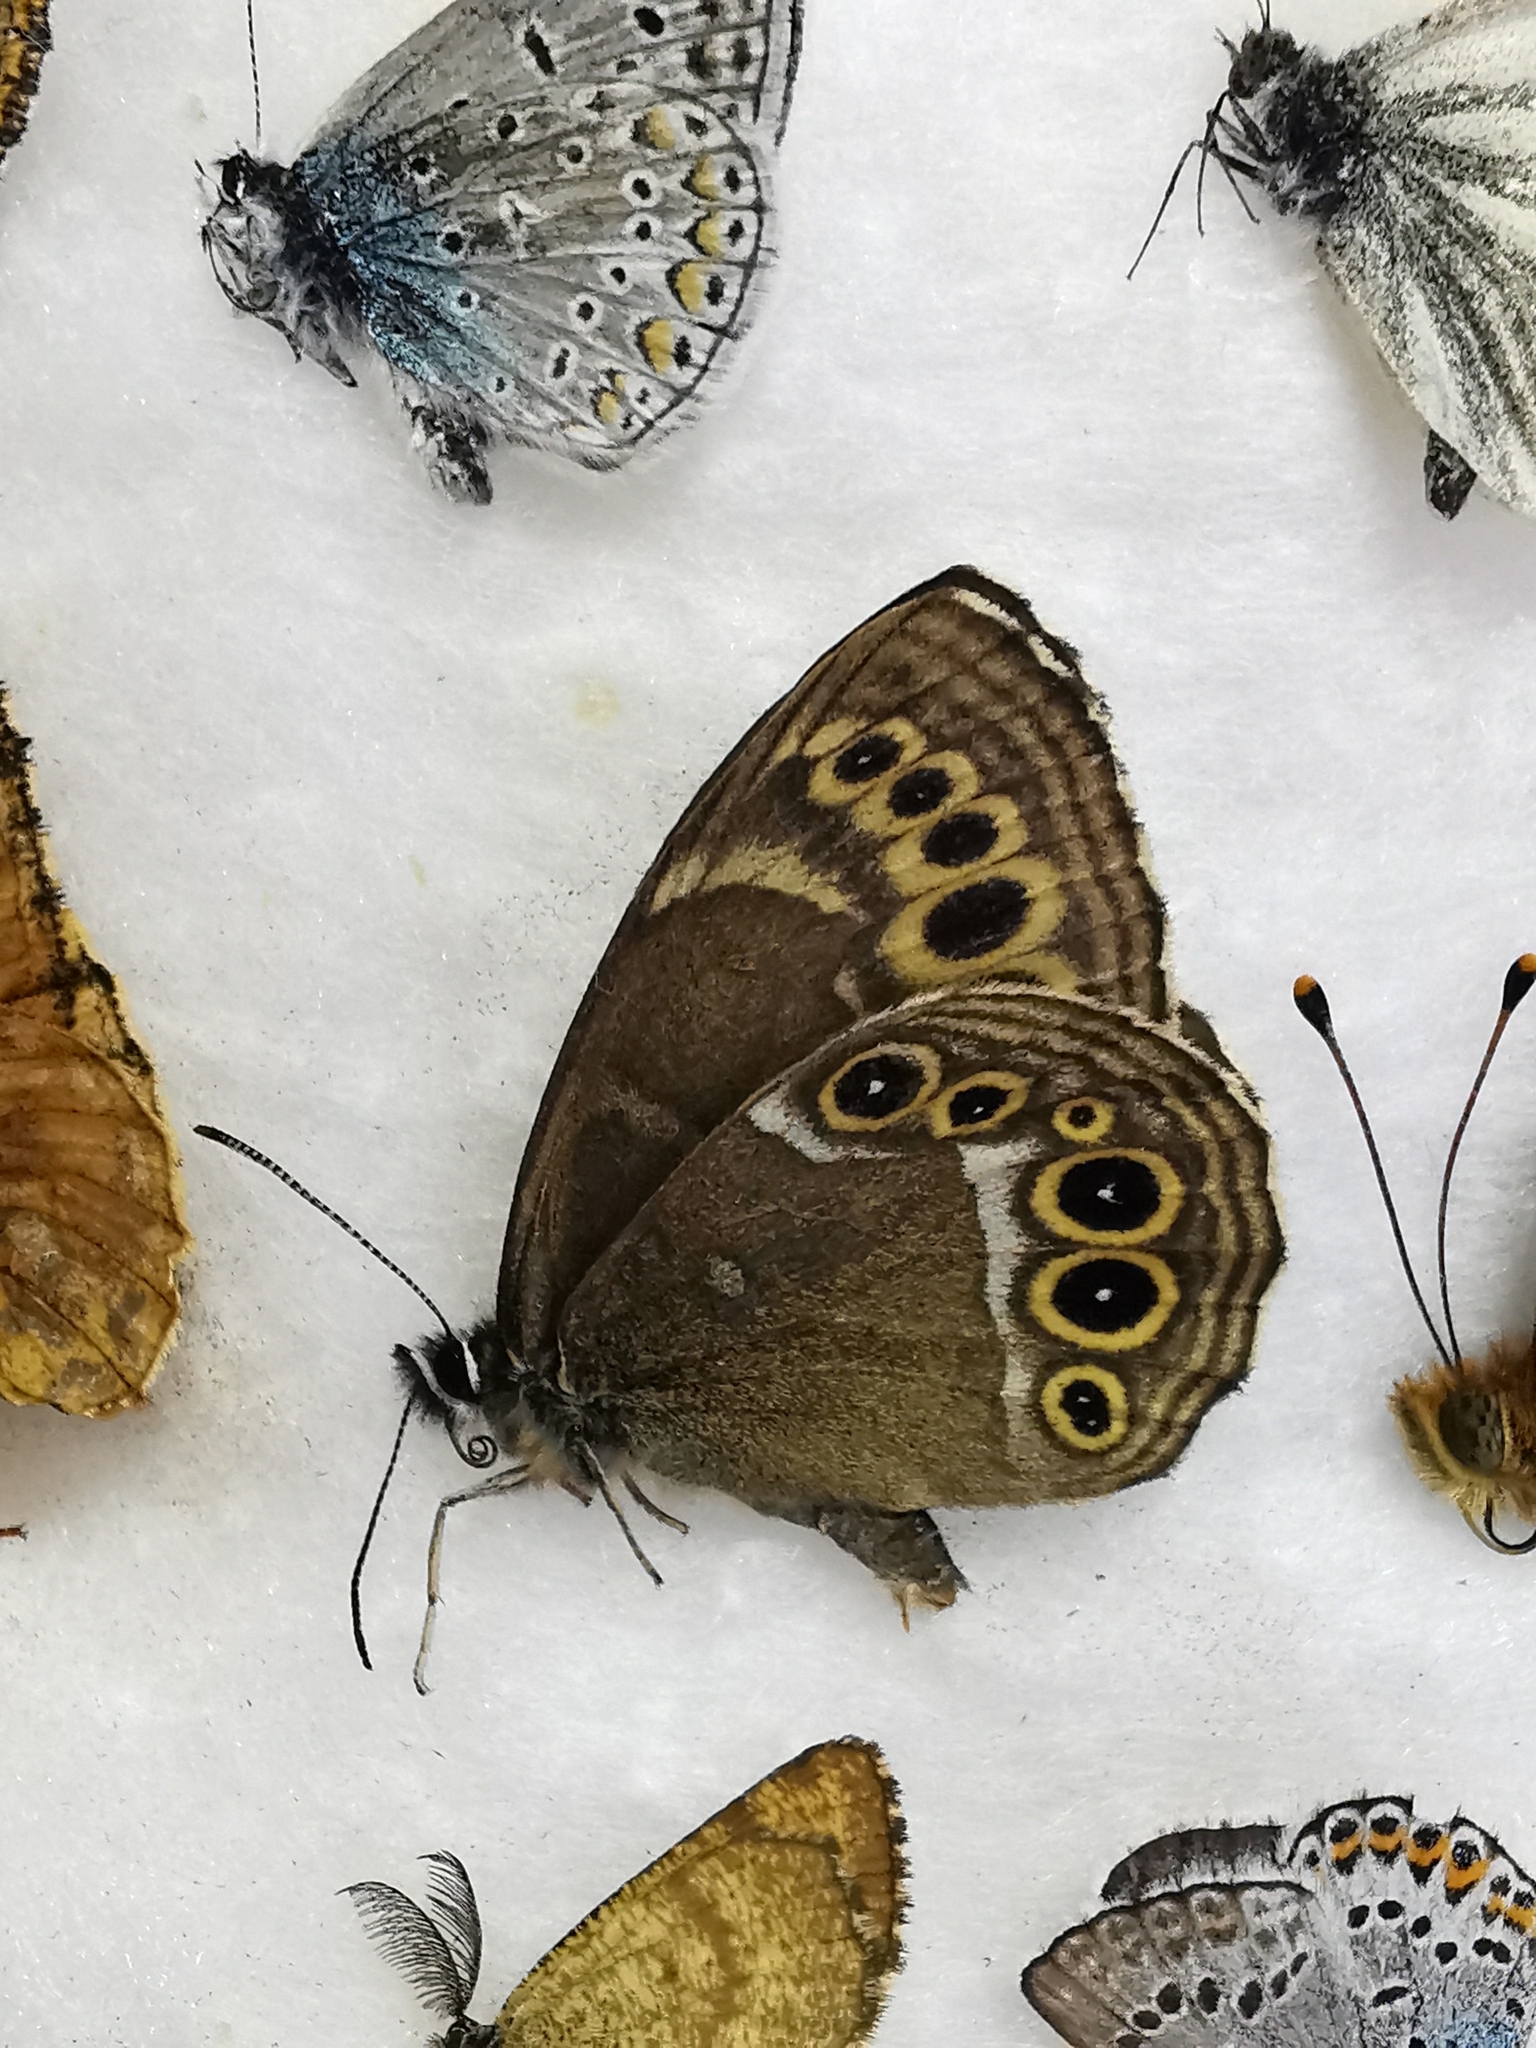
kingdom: Animalia
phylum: Arthropoda
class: Insecta
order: Lepidoptera
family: Nymphalidae
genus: Pararge
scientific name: Pararge Lopinga achine
